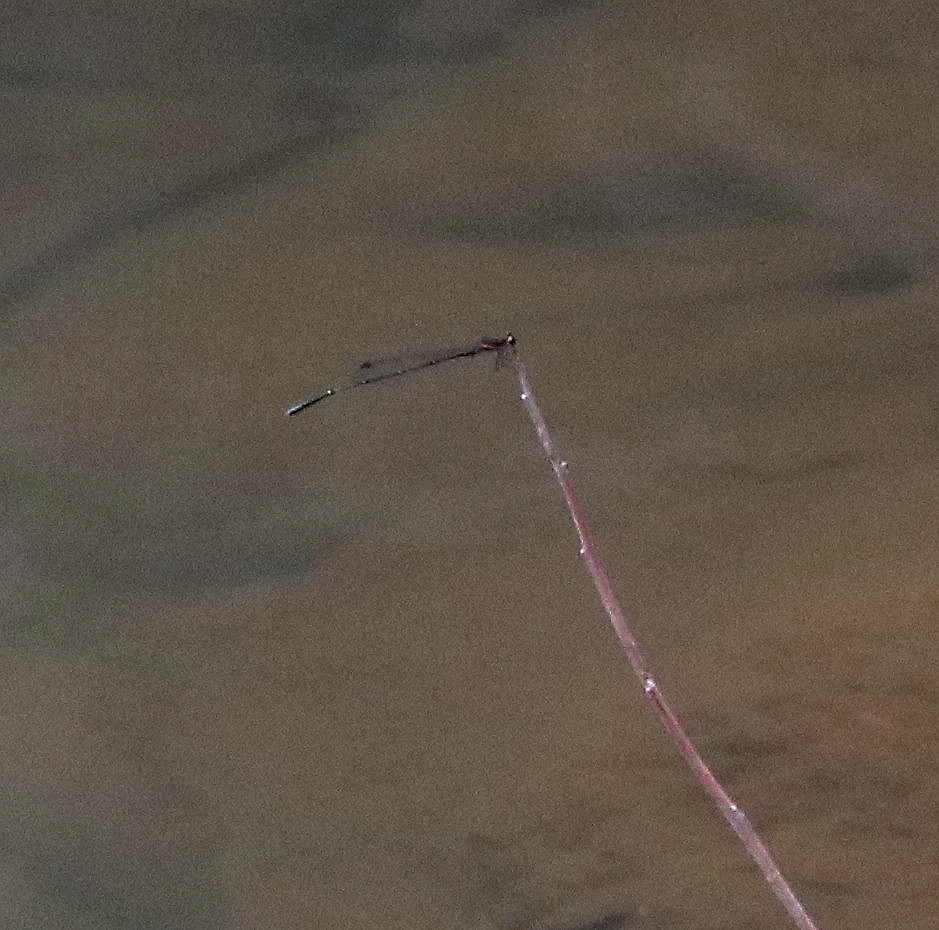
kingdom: Animalia
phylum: Arthropoda
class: Insecta
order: Odonata
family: Platycnemididae
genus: Prodasineura
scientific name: Prodasineura verticalis
